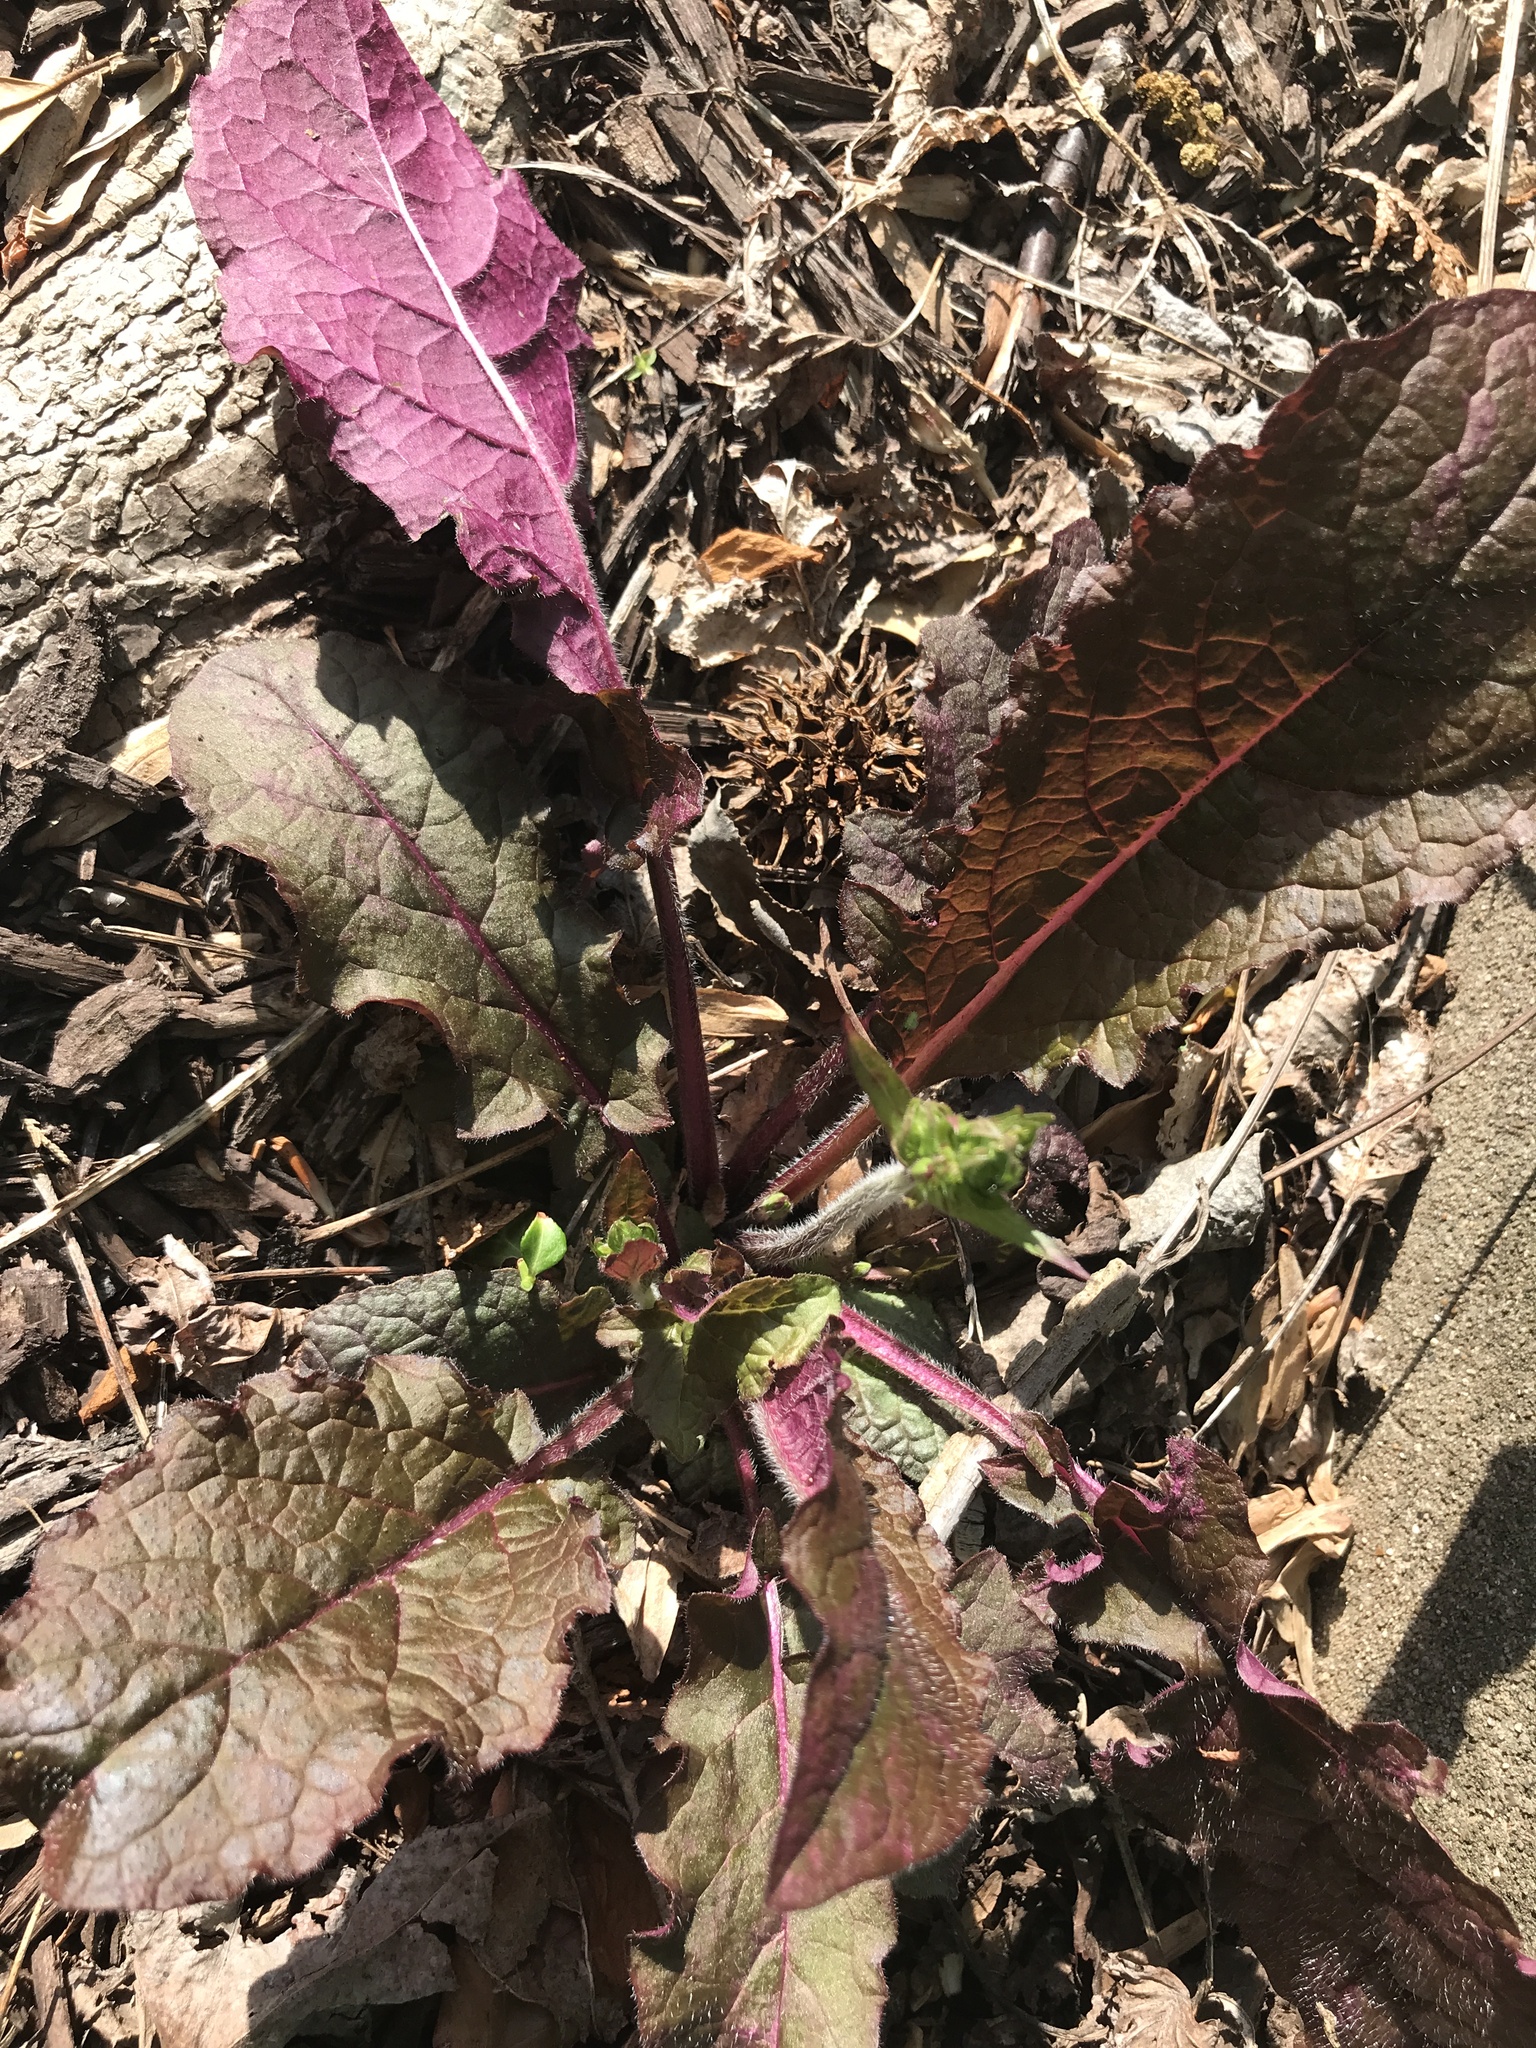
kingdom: Plantae
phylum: Tracheophyta
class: Magnoliopsida
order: Lamiales
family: Lamiaceae
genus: Salvia
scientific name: Salvia lyrata
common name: Cancerweed
